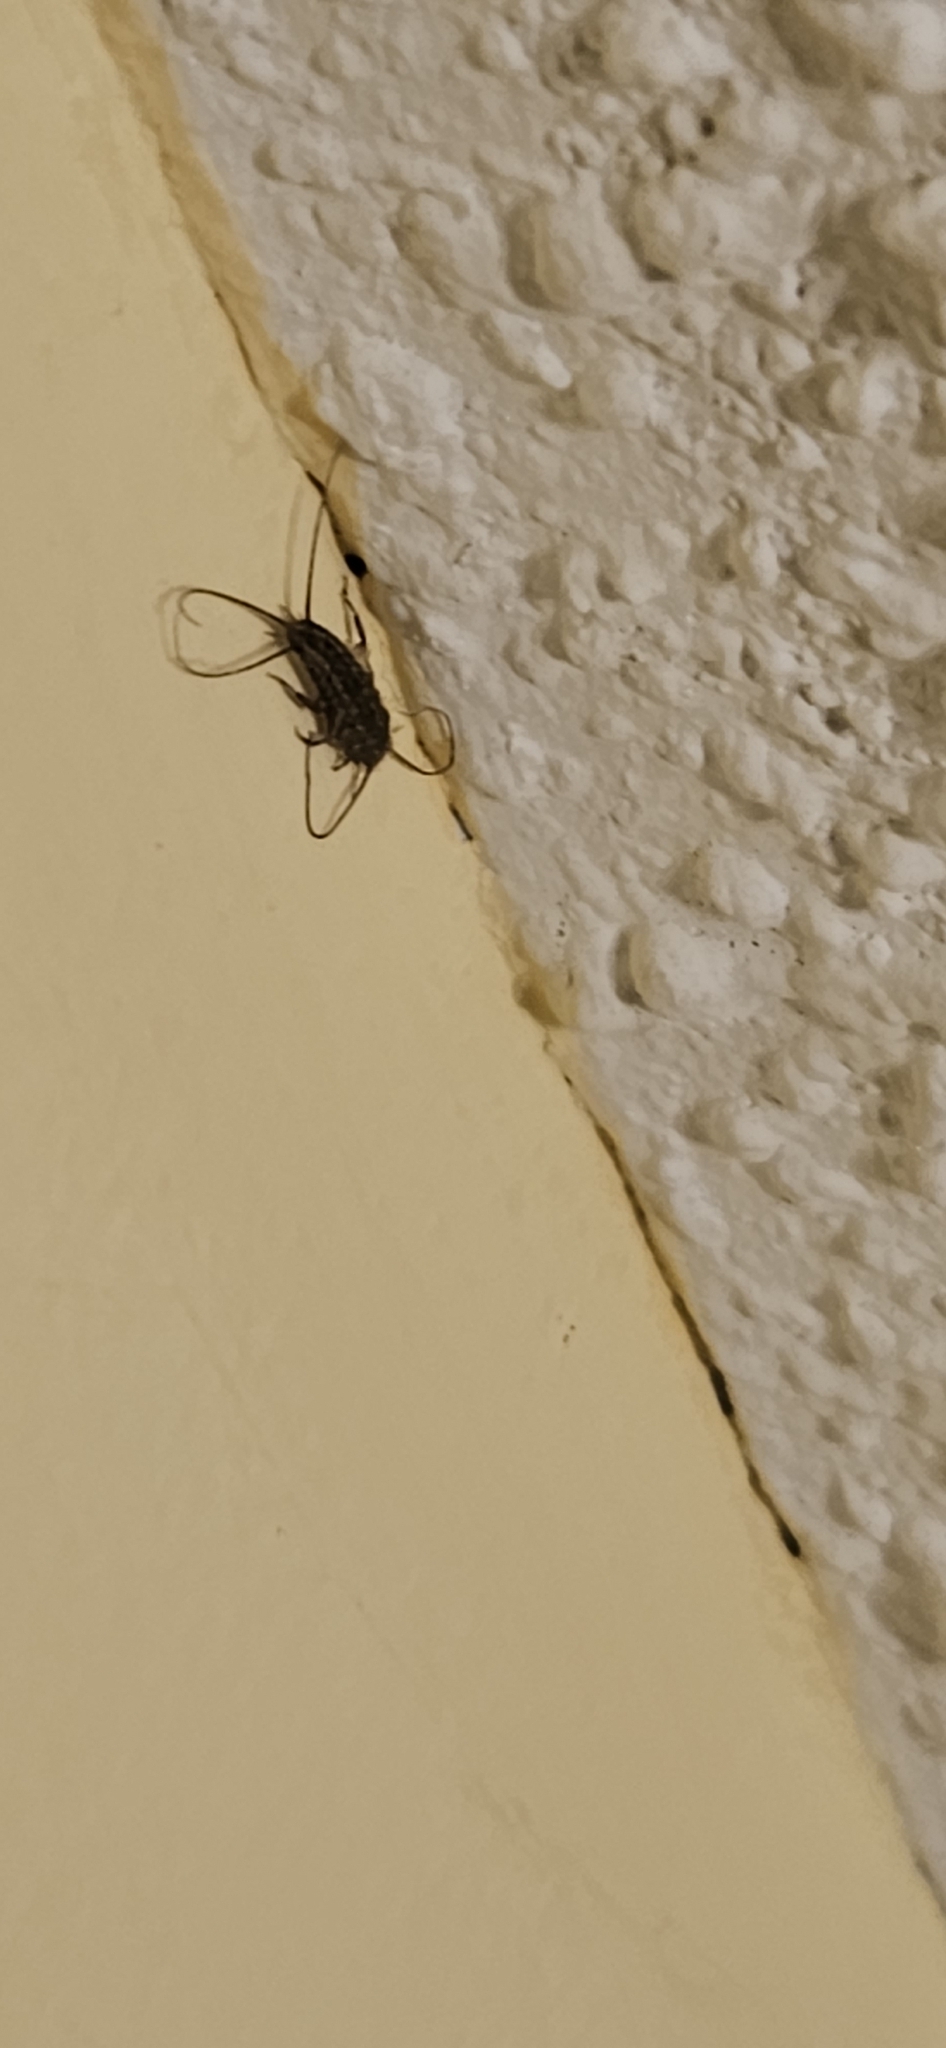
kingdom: Animalia
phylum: Arthropoda
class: Insecta
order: Zygentoma
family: Lepismatidae
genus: Ctenolepisma
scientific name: Ctenolepisma lineata
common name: Four-lined silverfish
